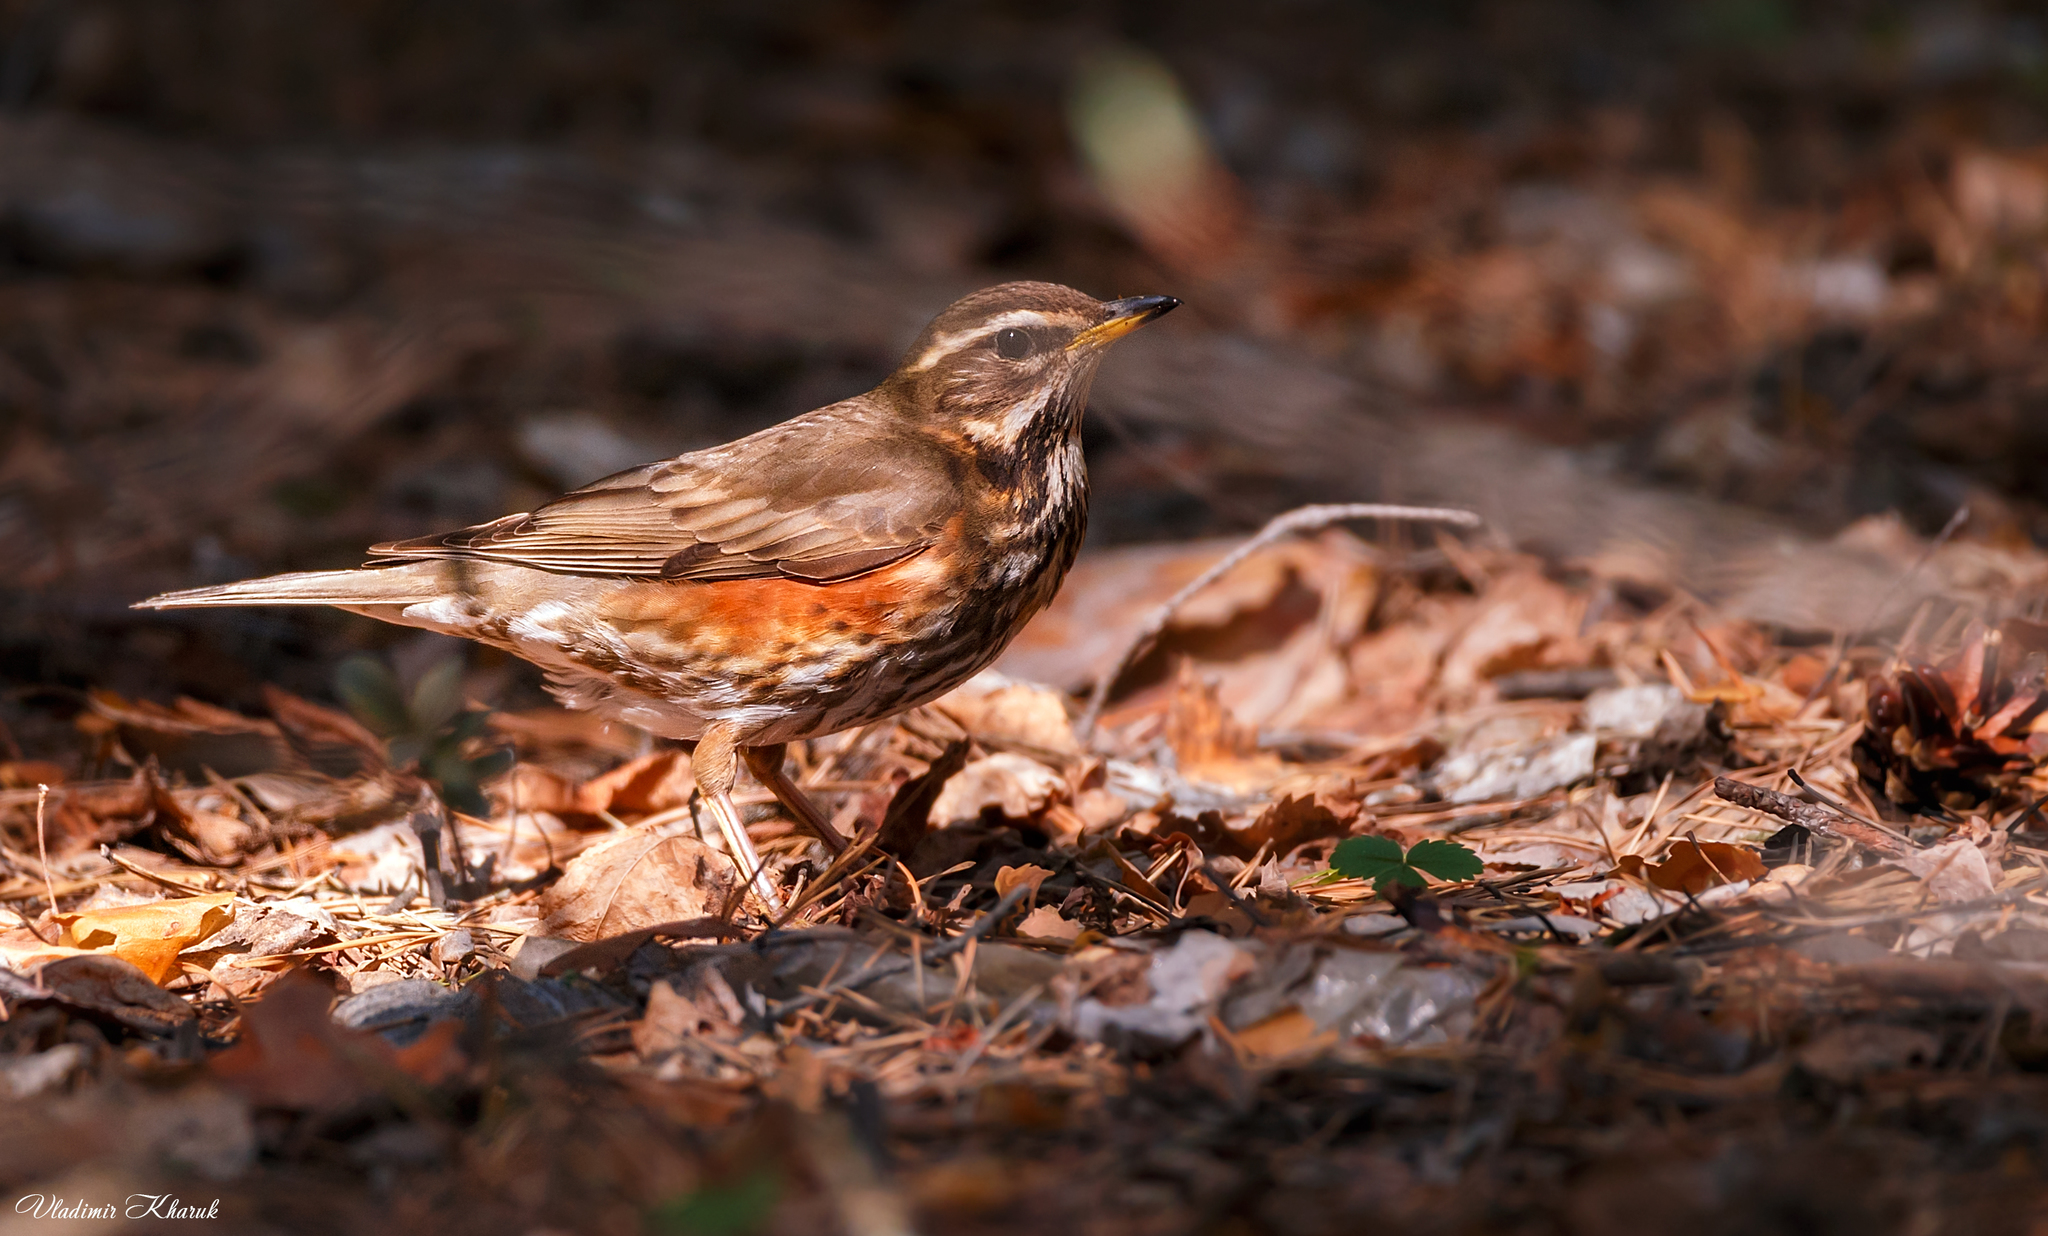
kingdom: Animalia
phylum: Chordata
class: Aves
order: Passeriformes
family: Turdidae
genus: Turdus
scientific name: Turdus iliacus
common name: Redwing
